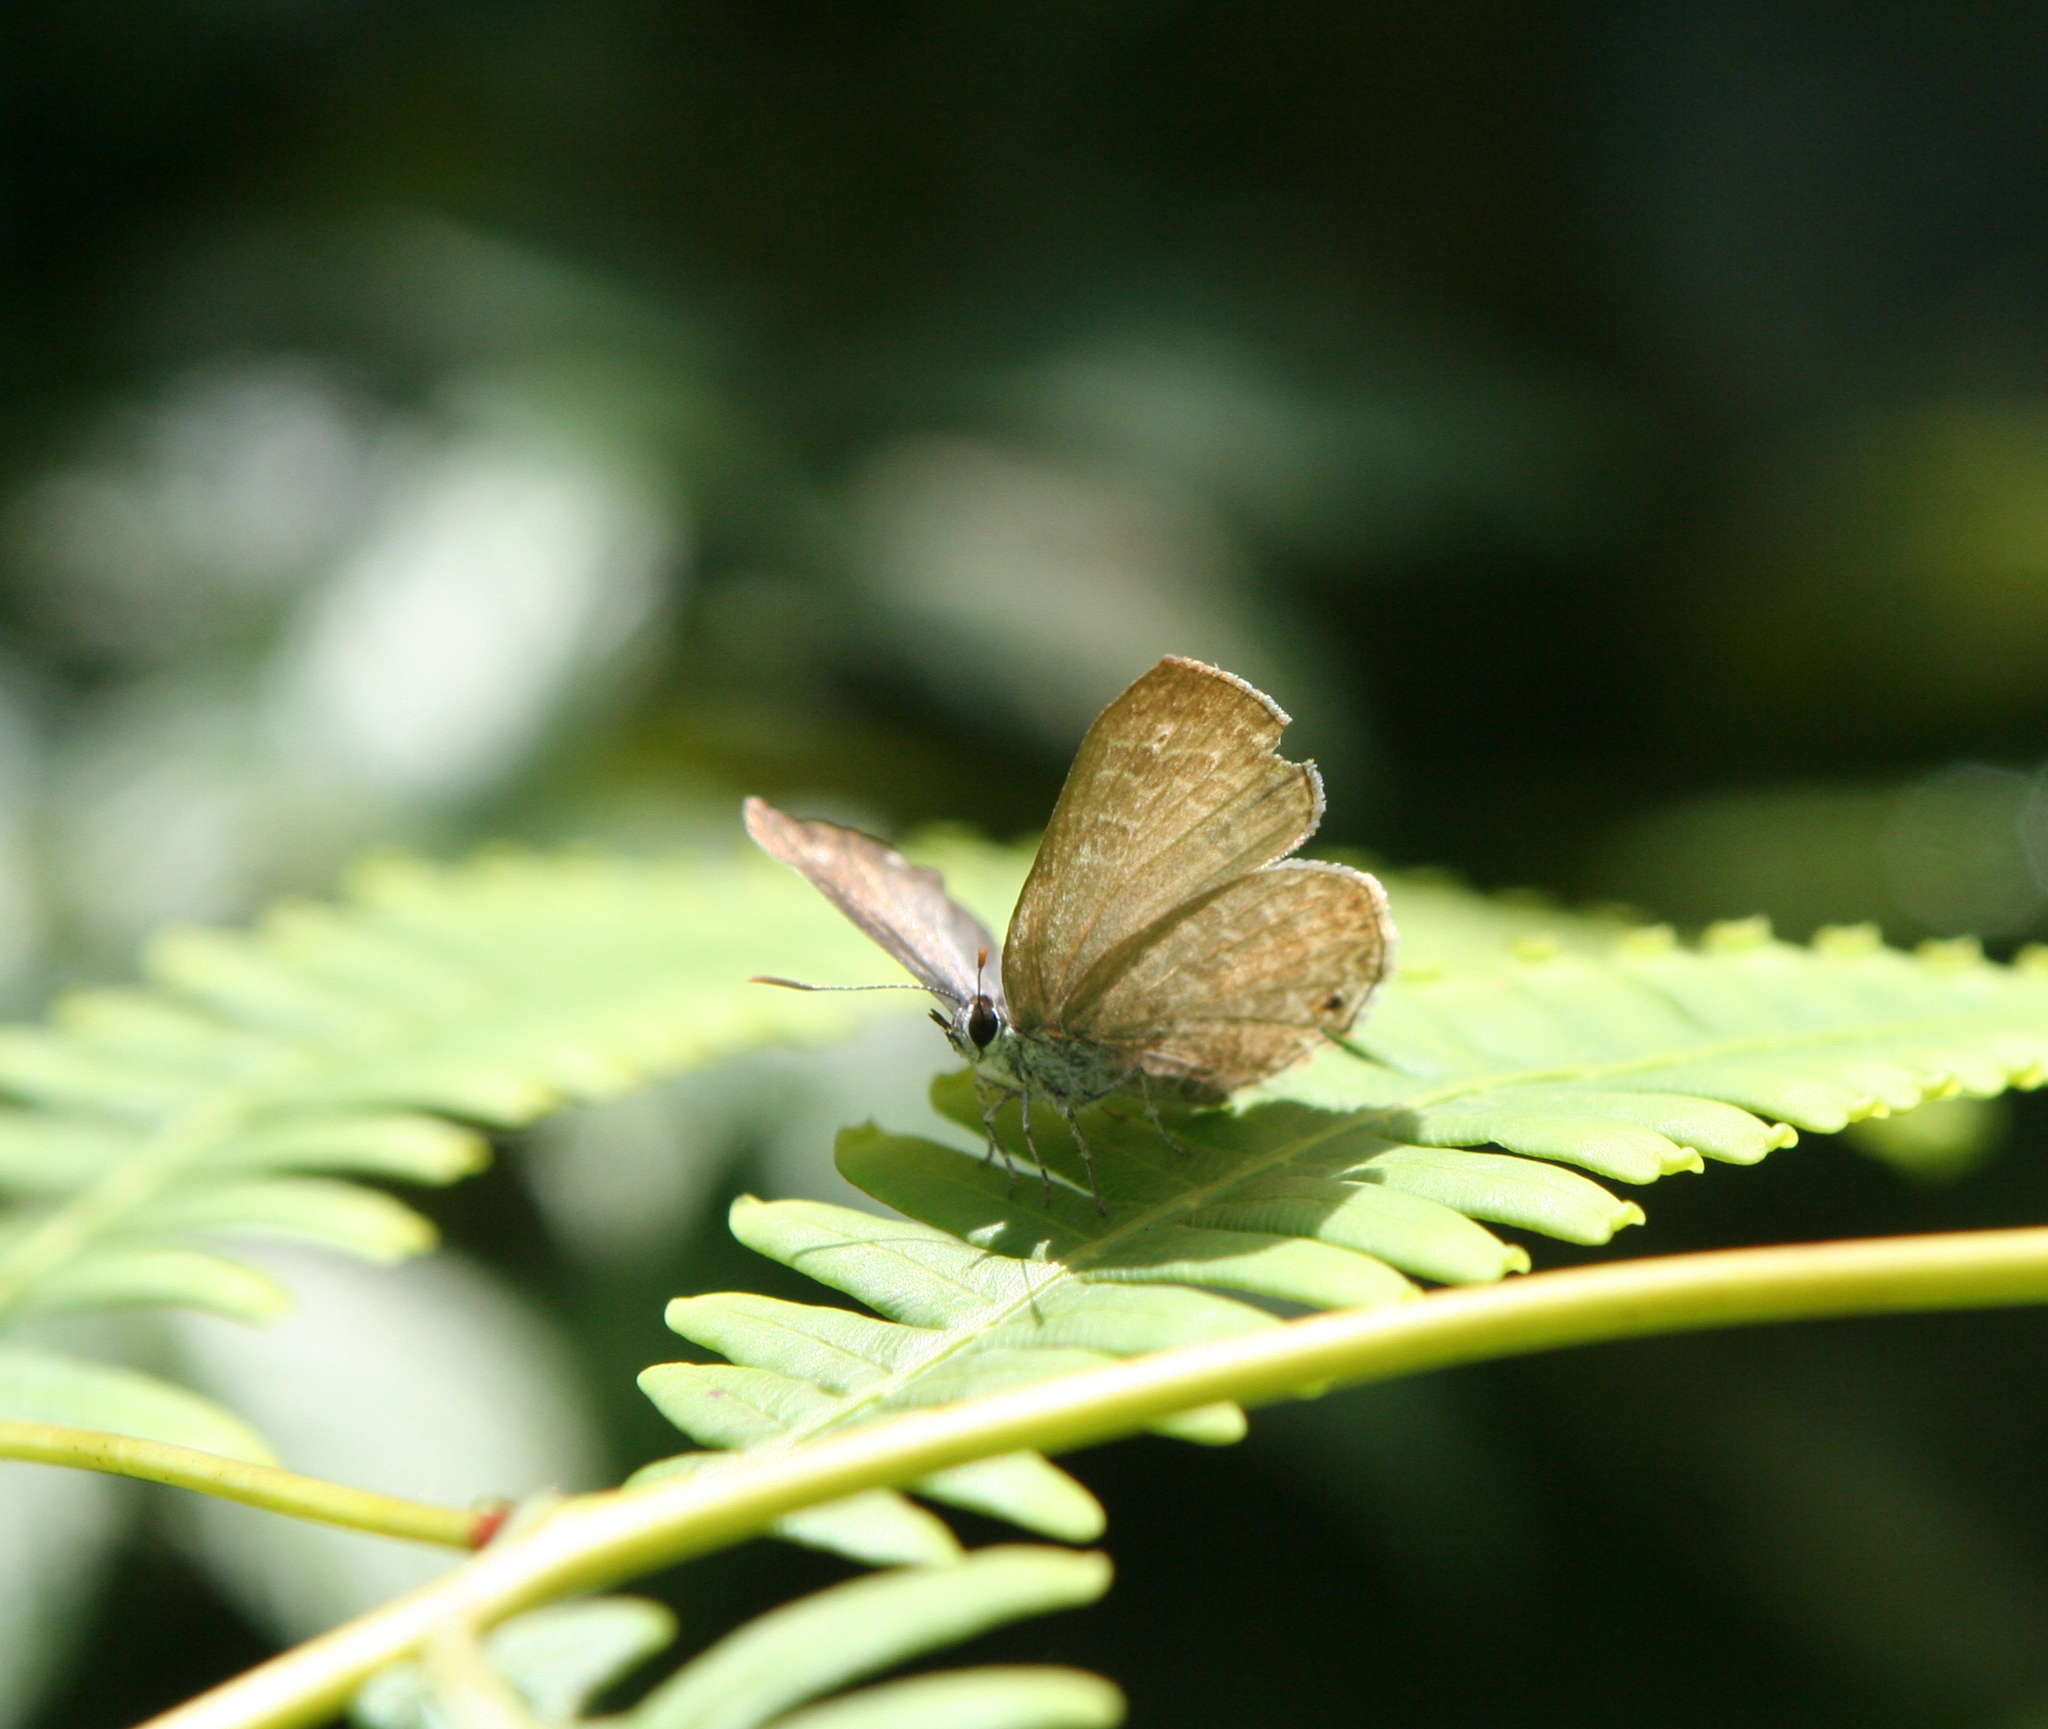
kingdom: Animalia
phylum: Arthropoda
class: Insecta
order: Lepidoptera
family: Lycaenidae
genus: Anthene
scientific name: Anthene emolus
